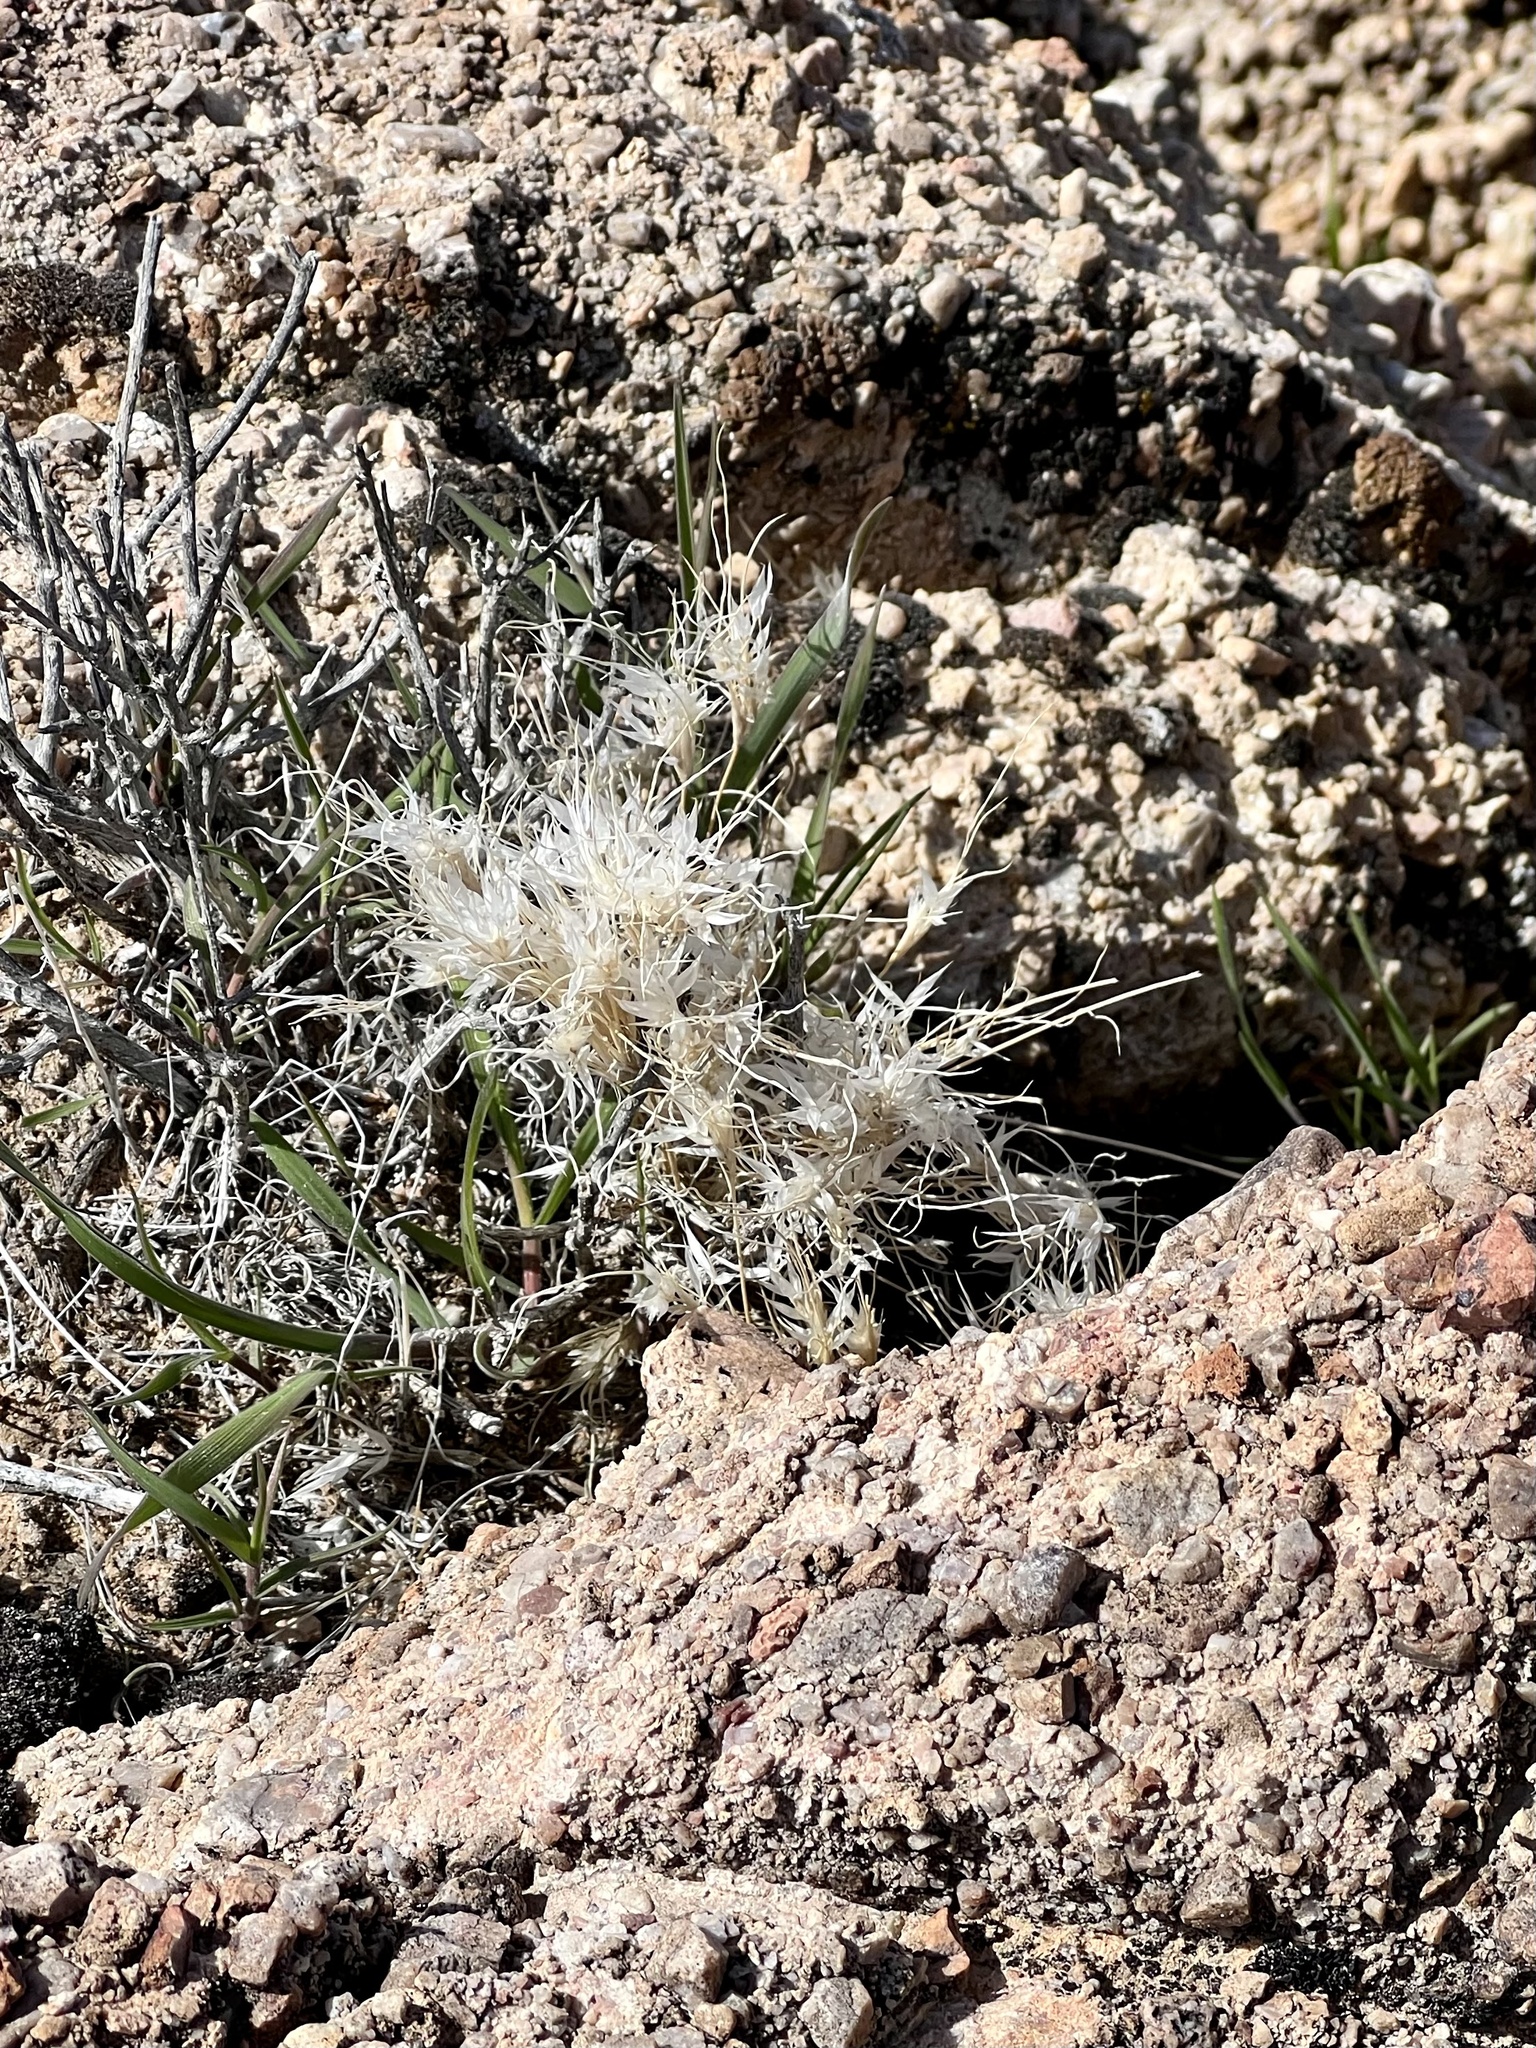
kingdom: Plantae
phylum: Tracheophyta
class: Liliopsida
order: Poales
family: Poaceae
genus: Dasyochloa
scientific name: Dasyochloa pulchella
